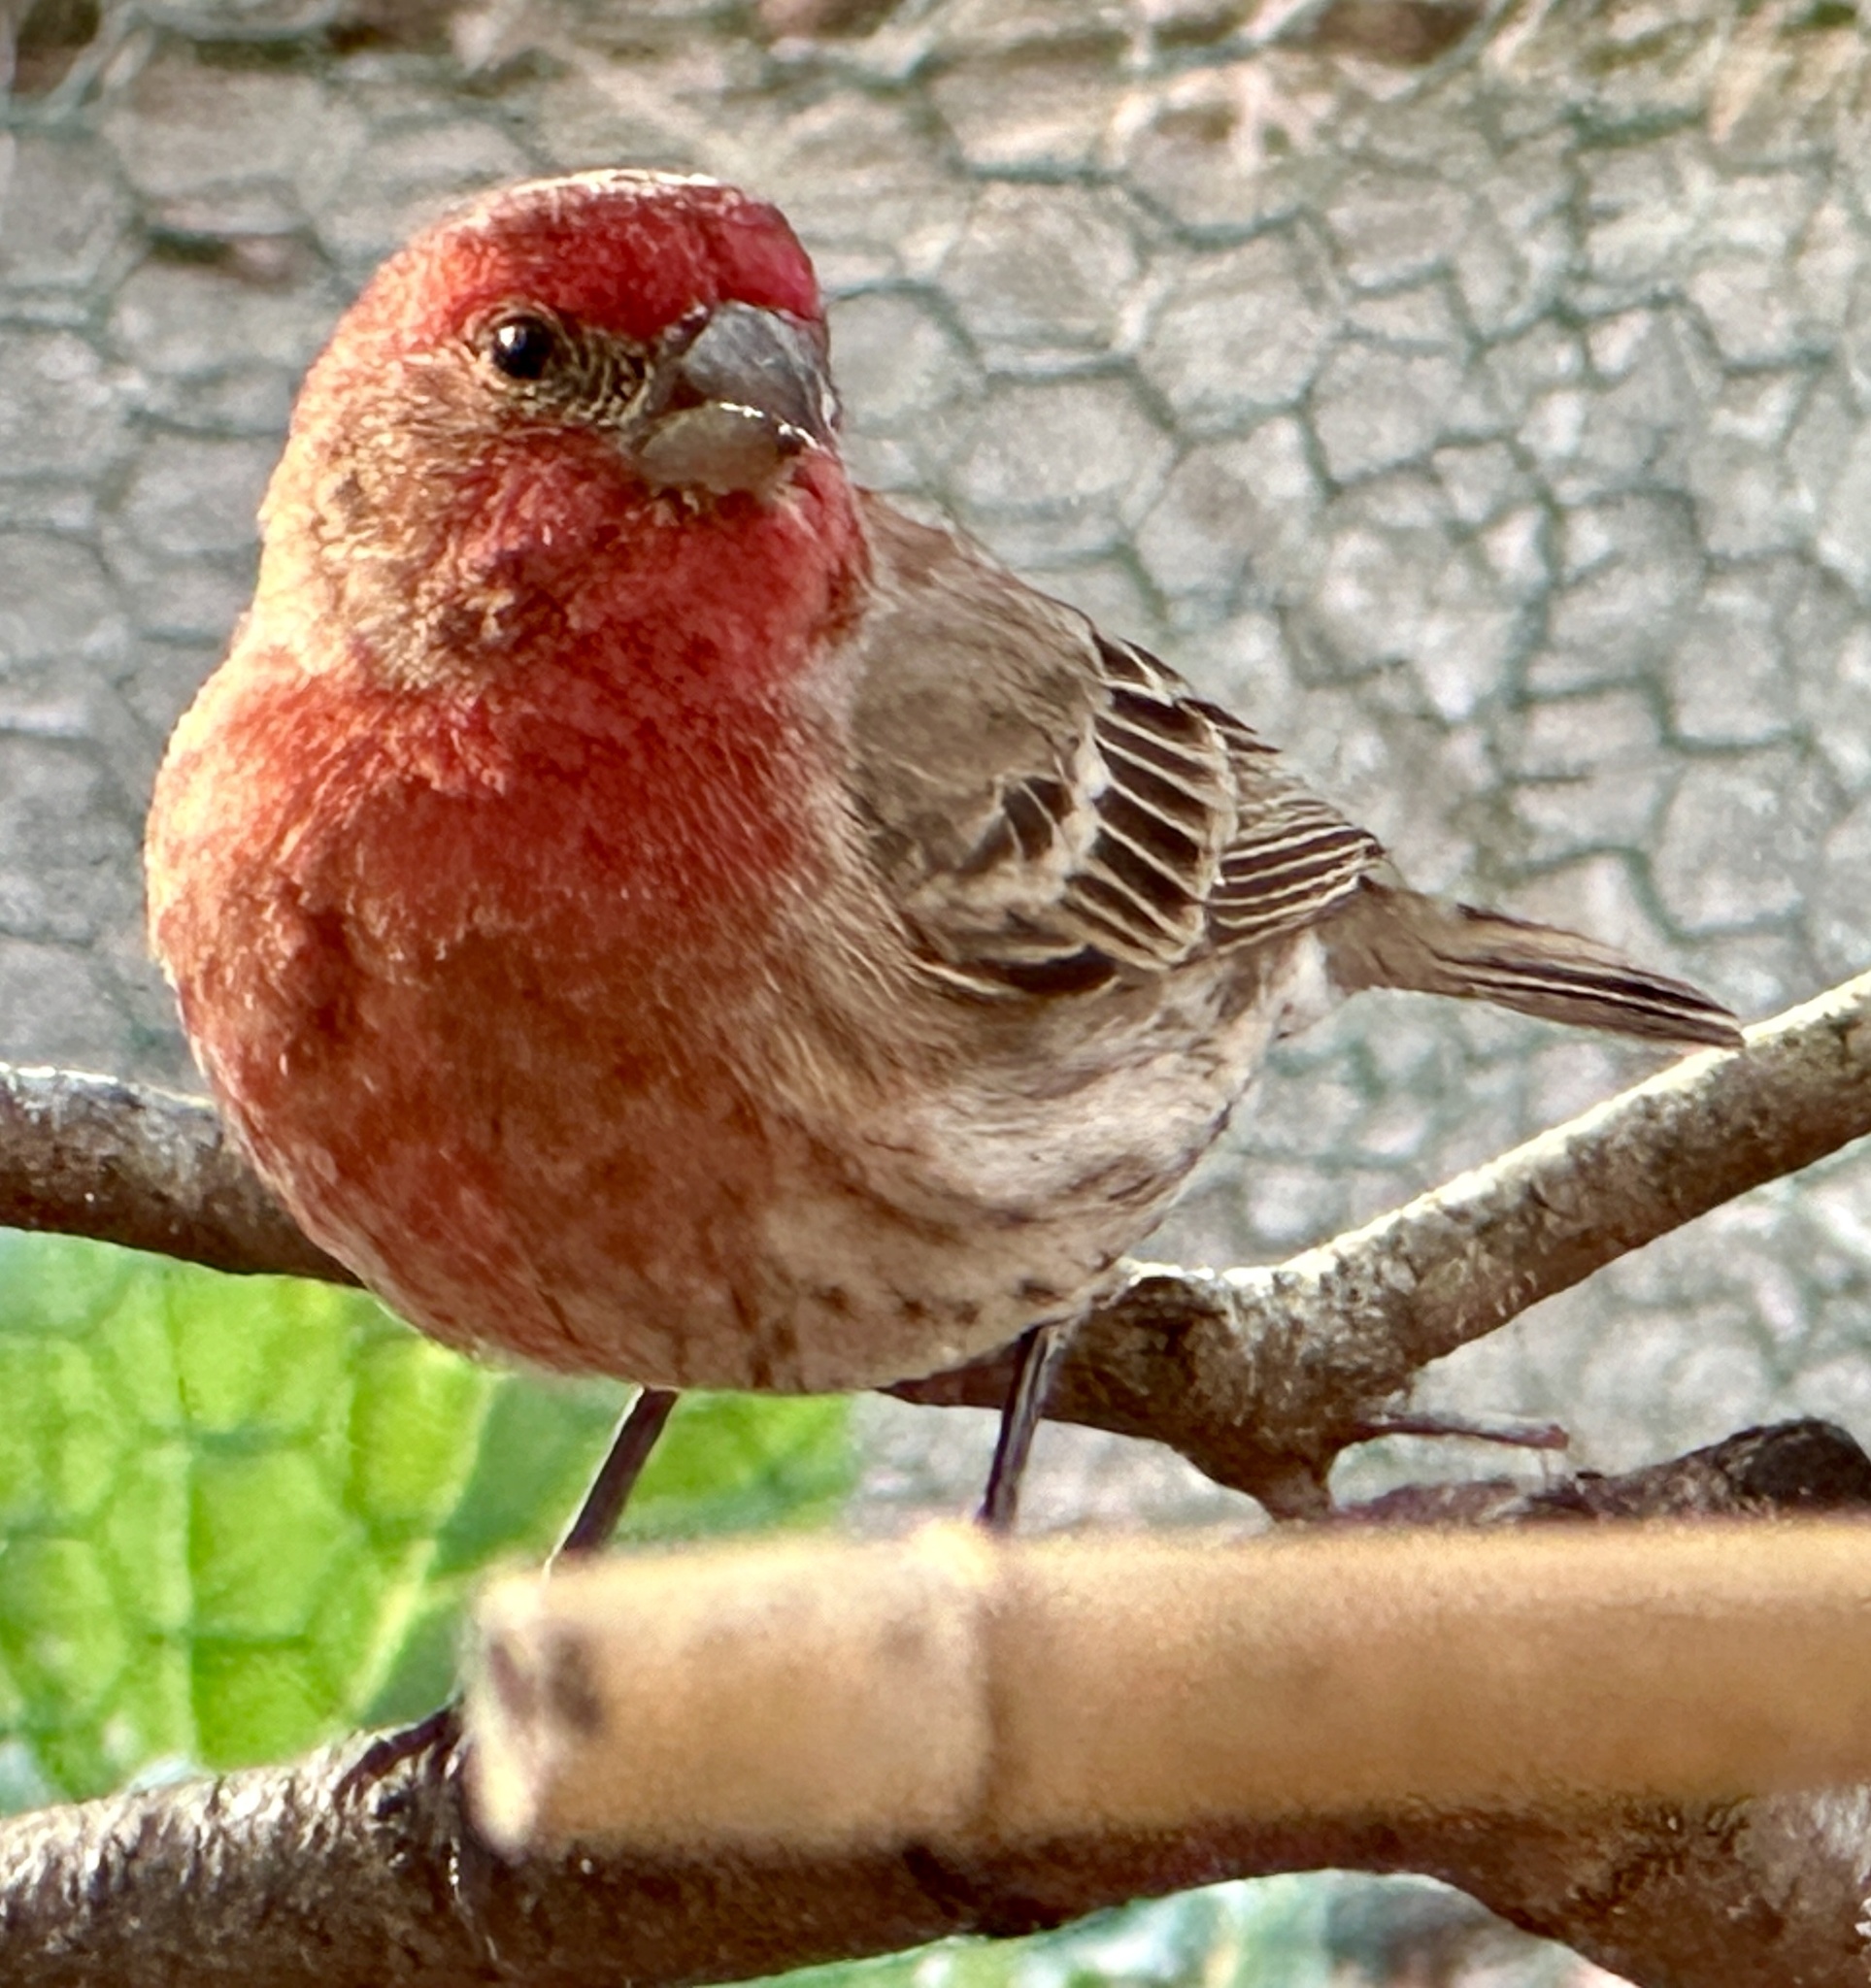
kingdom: Animalia
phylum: Chordata
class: Aves
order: Passeriformes
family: Fringillidae
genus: Haemorhous
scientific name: Haemorhous mexicanus
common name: House finch
